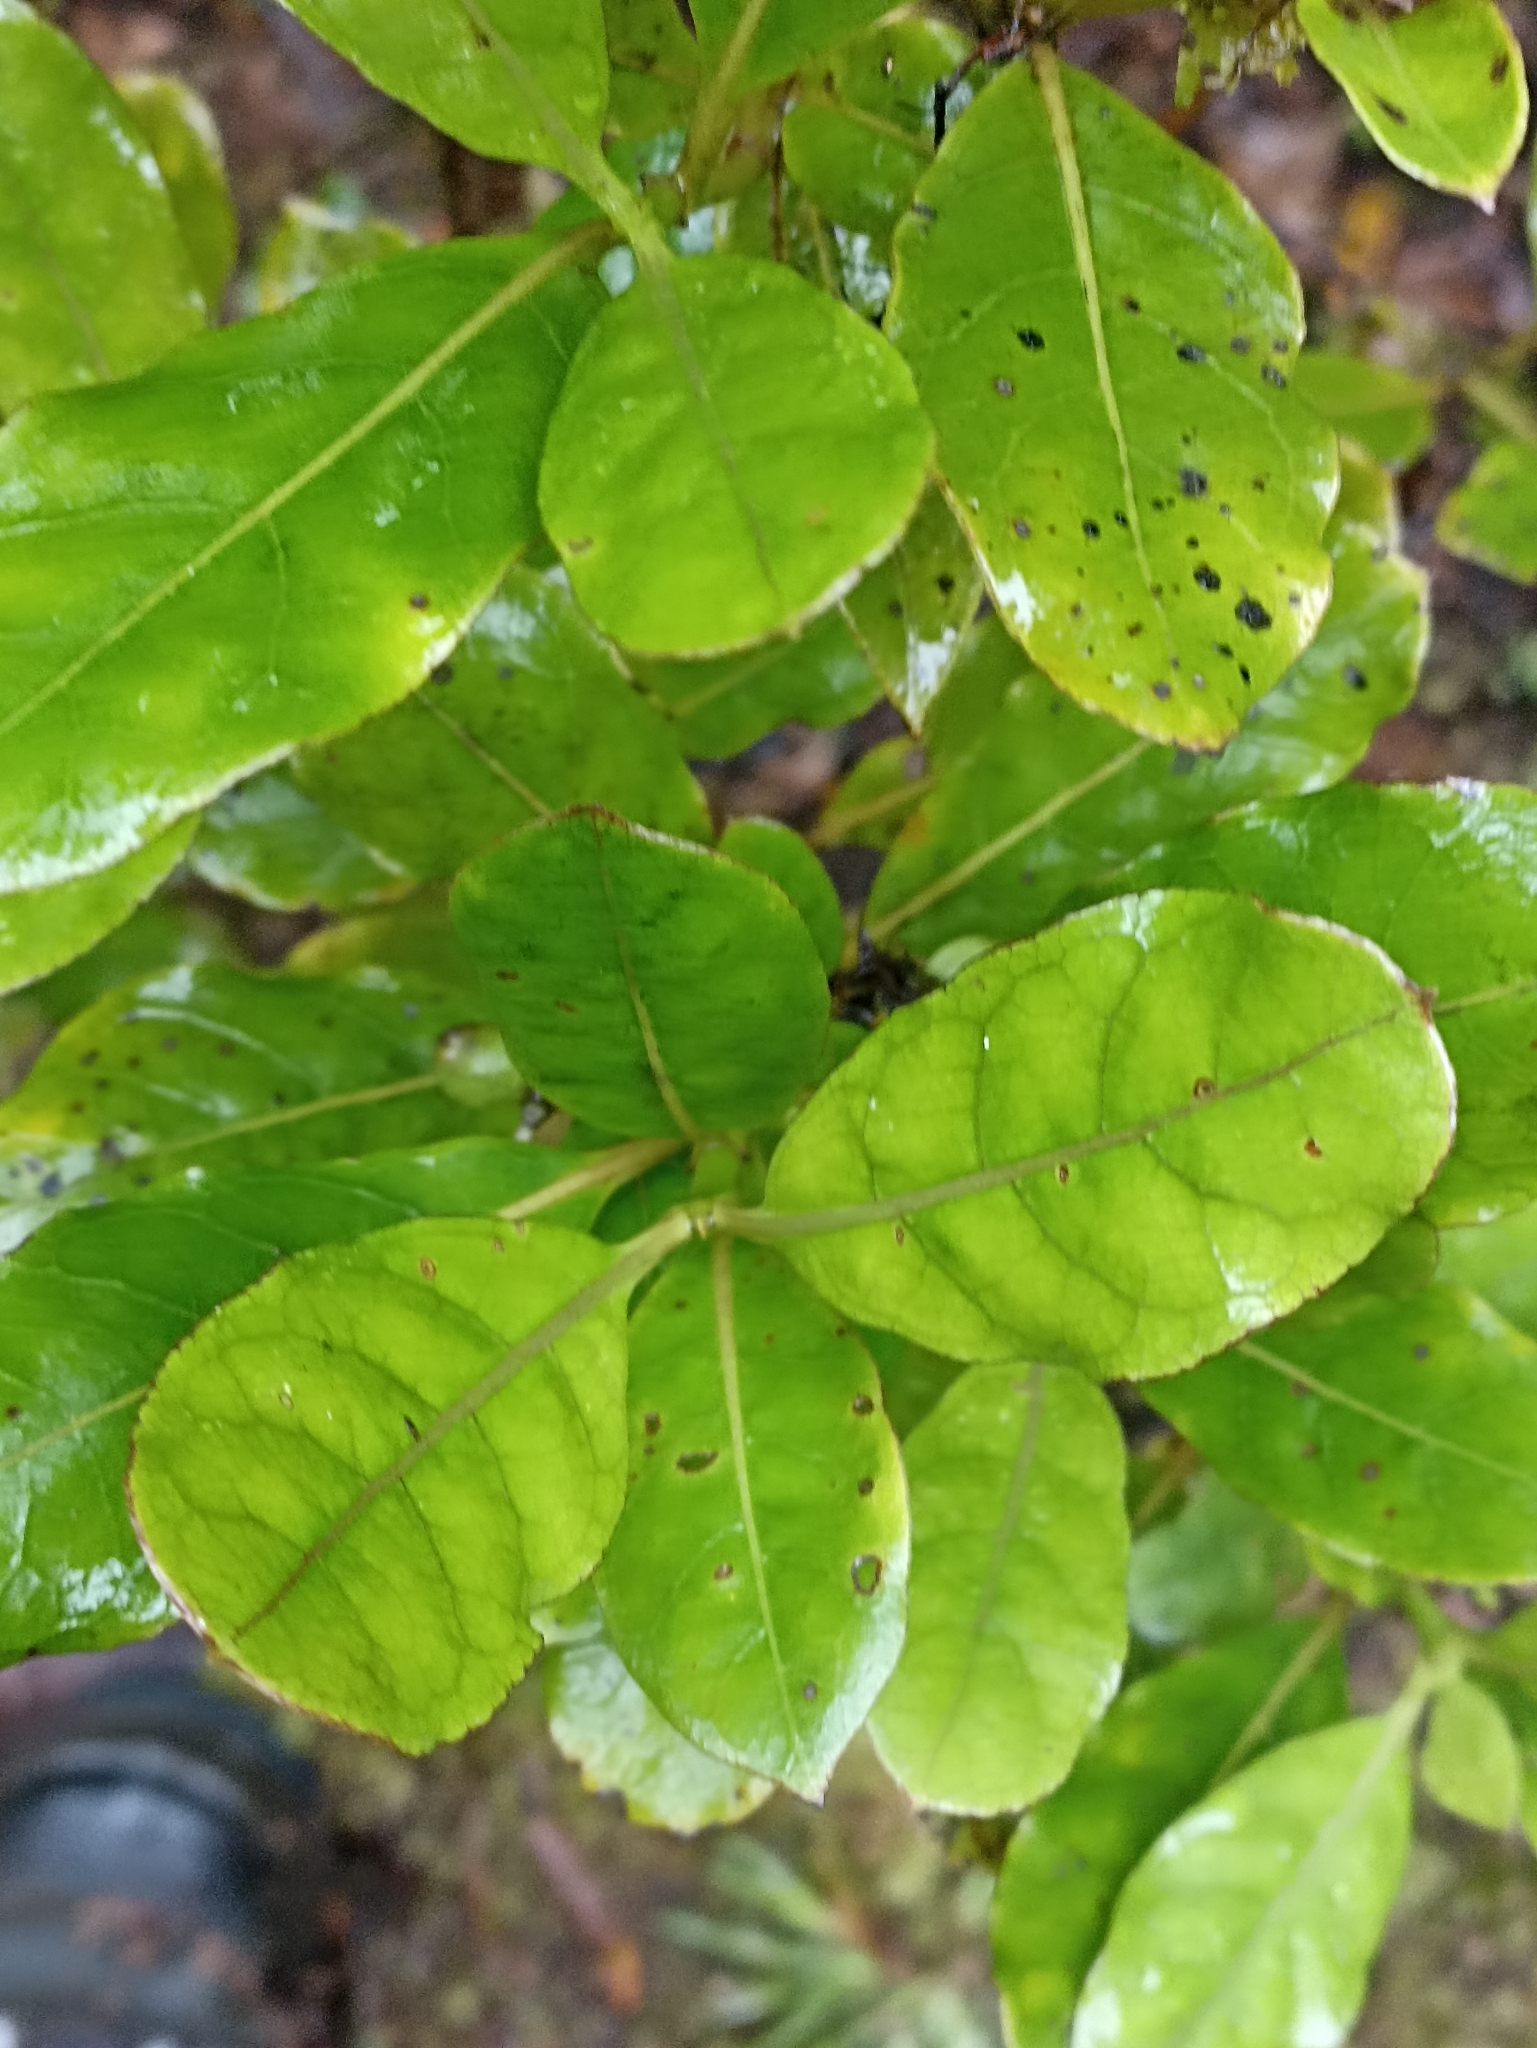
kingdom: Plantae
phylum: Tracheophyta
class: Magnoliopsida
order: Gentianales
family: Rubiaceae
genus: Coprosma
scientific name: Coprosma dodonaeifolia
